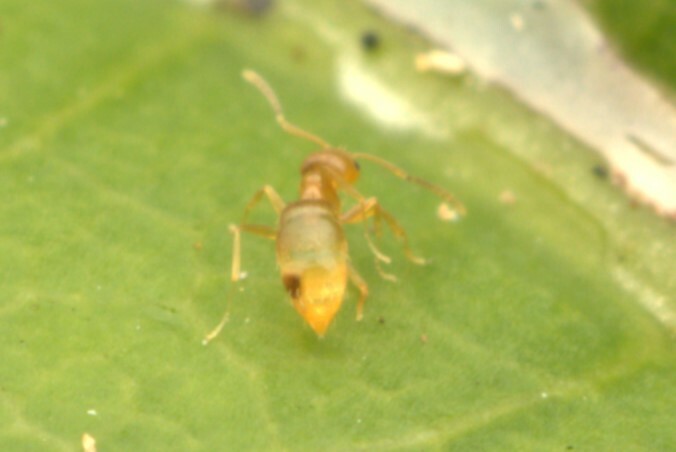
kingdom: Animalia
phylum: Arthropoda
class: Insecta
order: Hymenoptera
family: Formicidae
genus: Plagiolepis
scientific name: Plagiolepis alluaudi
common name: Little yellow ant
